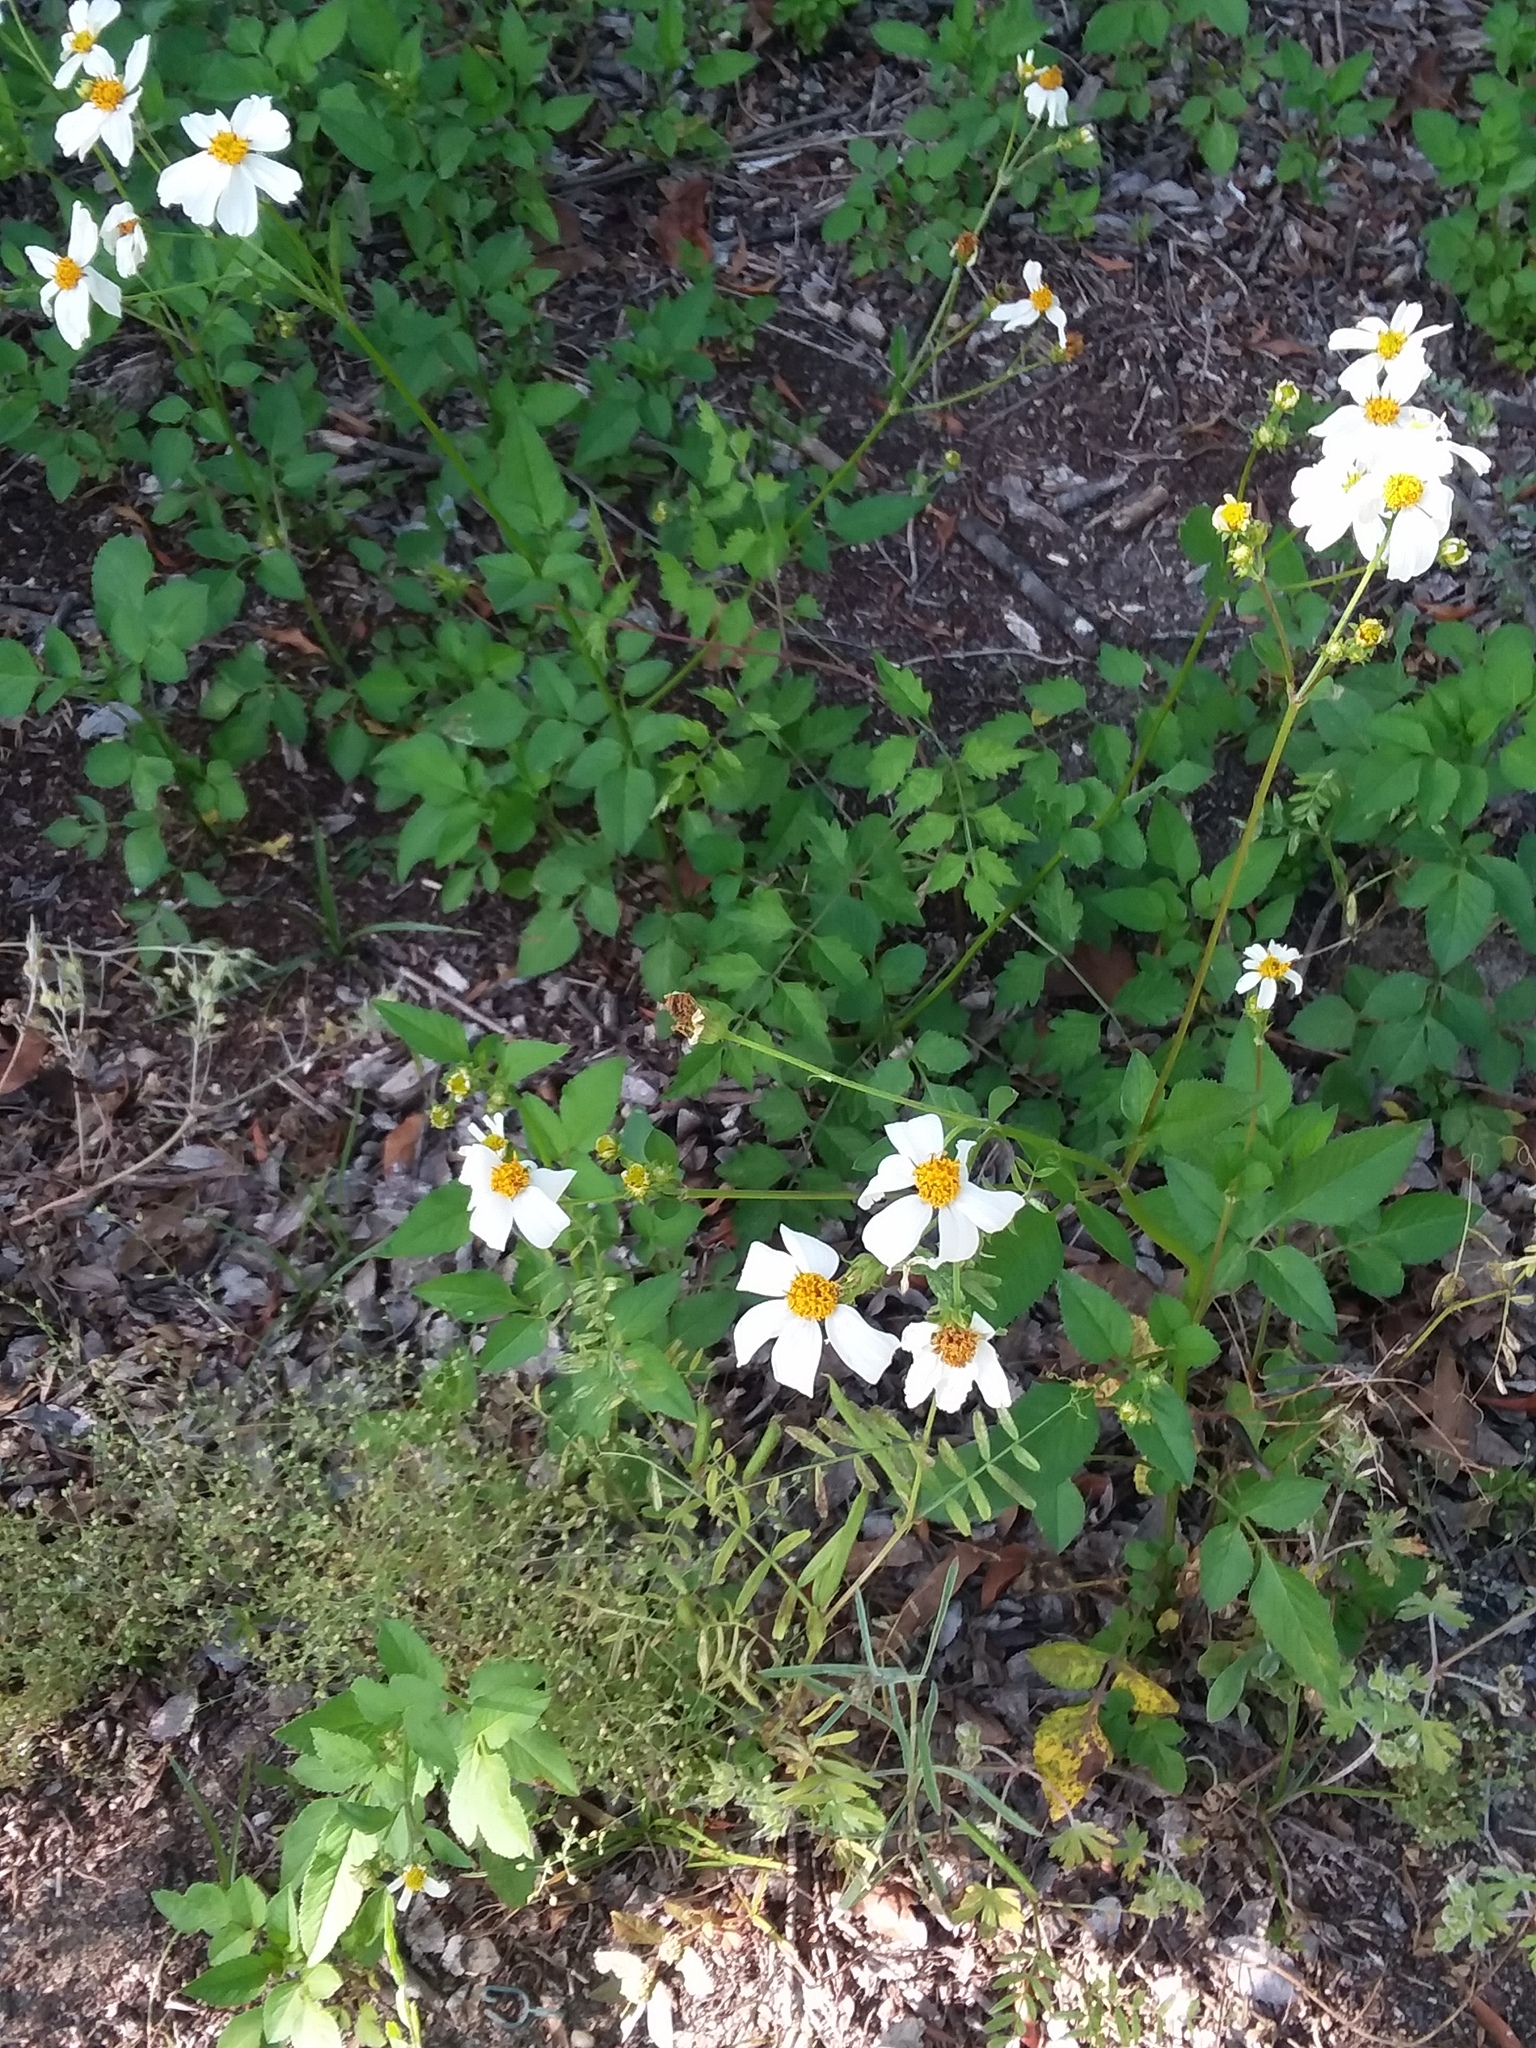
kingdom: Plantae
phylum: Tracheophyta
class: Magnoliopsida
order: Asterales
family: Asteraceae
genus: Bidens
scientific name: Bidens alba
